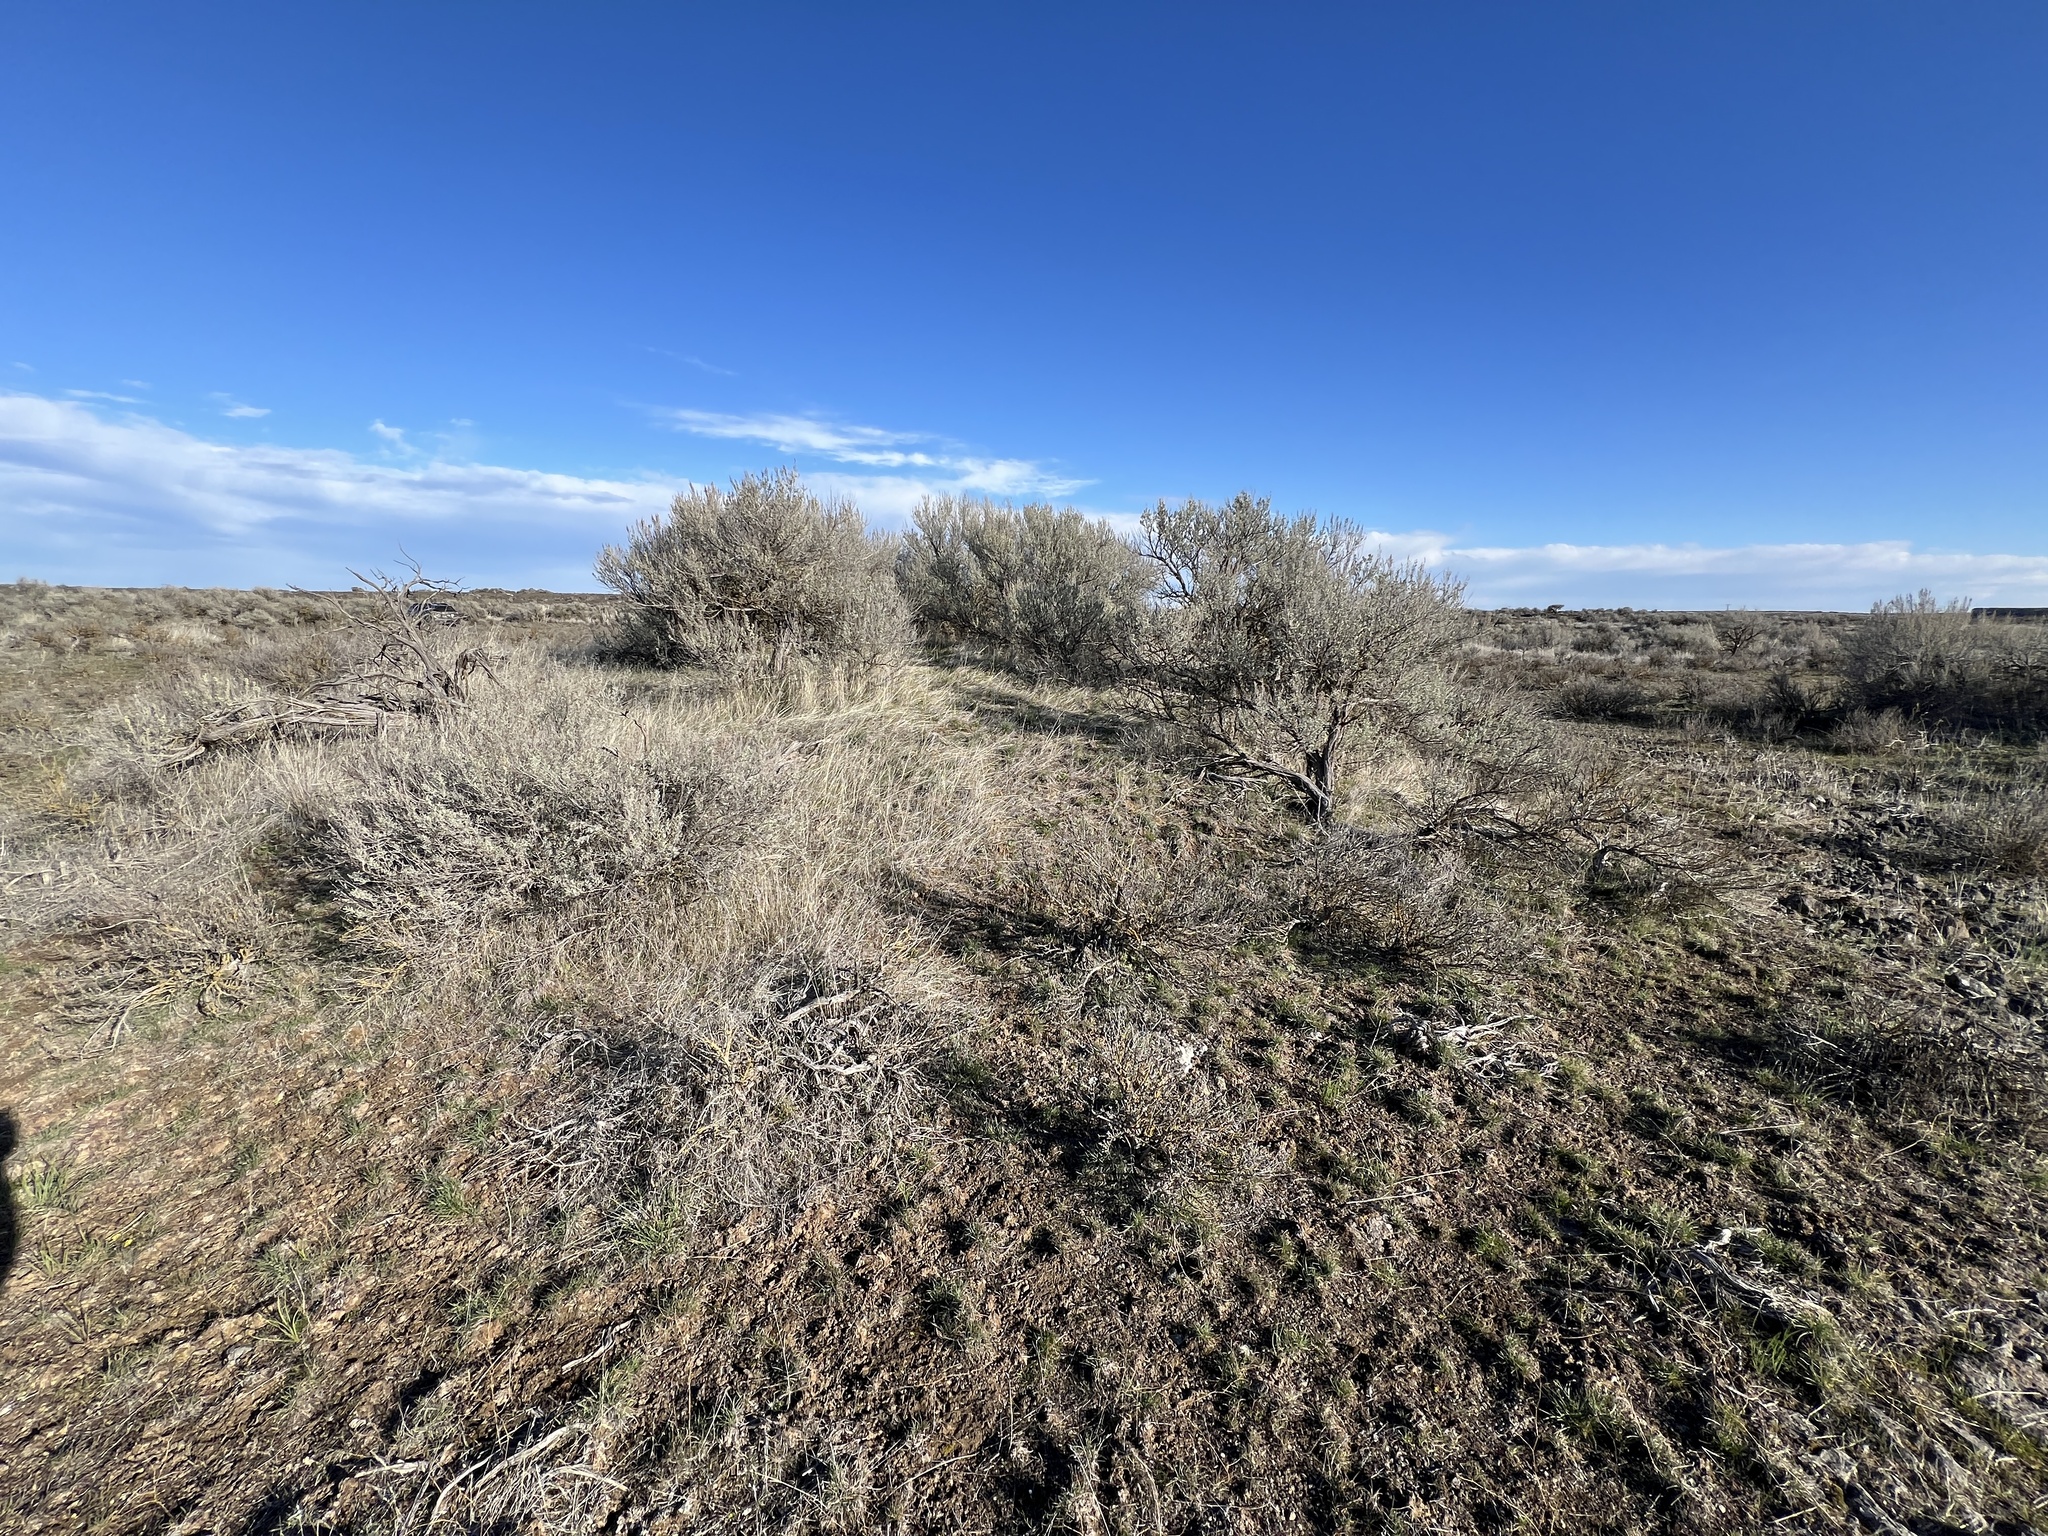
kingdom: Plantae
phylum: Tracheophyta
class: Magnoliopsida
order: Asterales
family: Asteraceae
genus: Artemisia
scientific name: Artemisia tridentata
